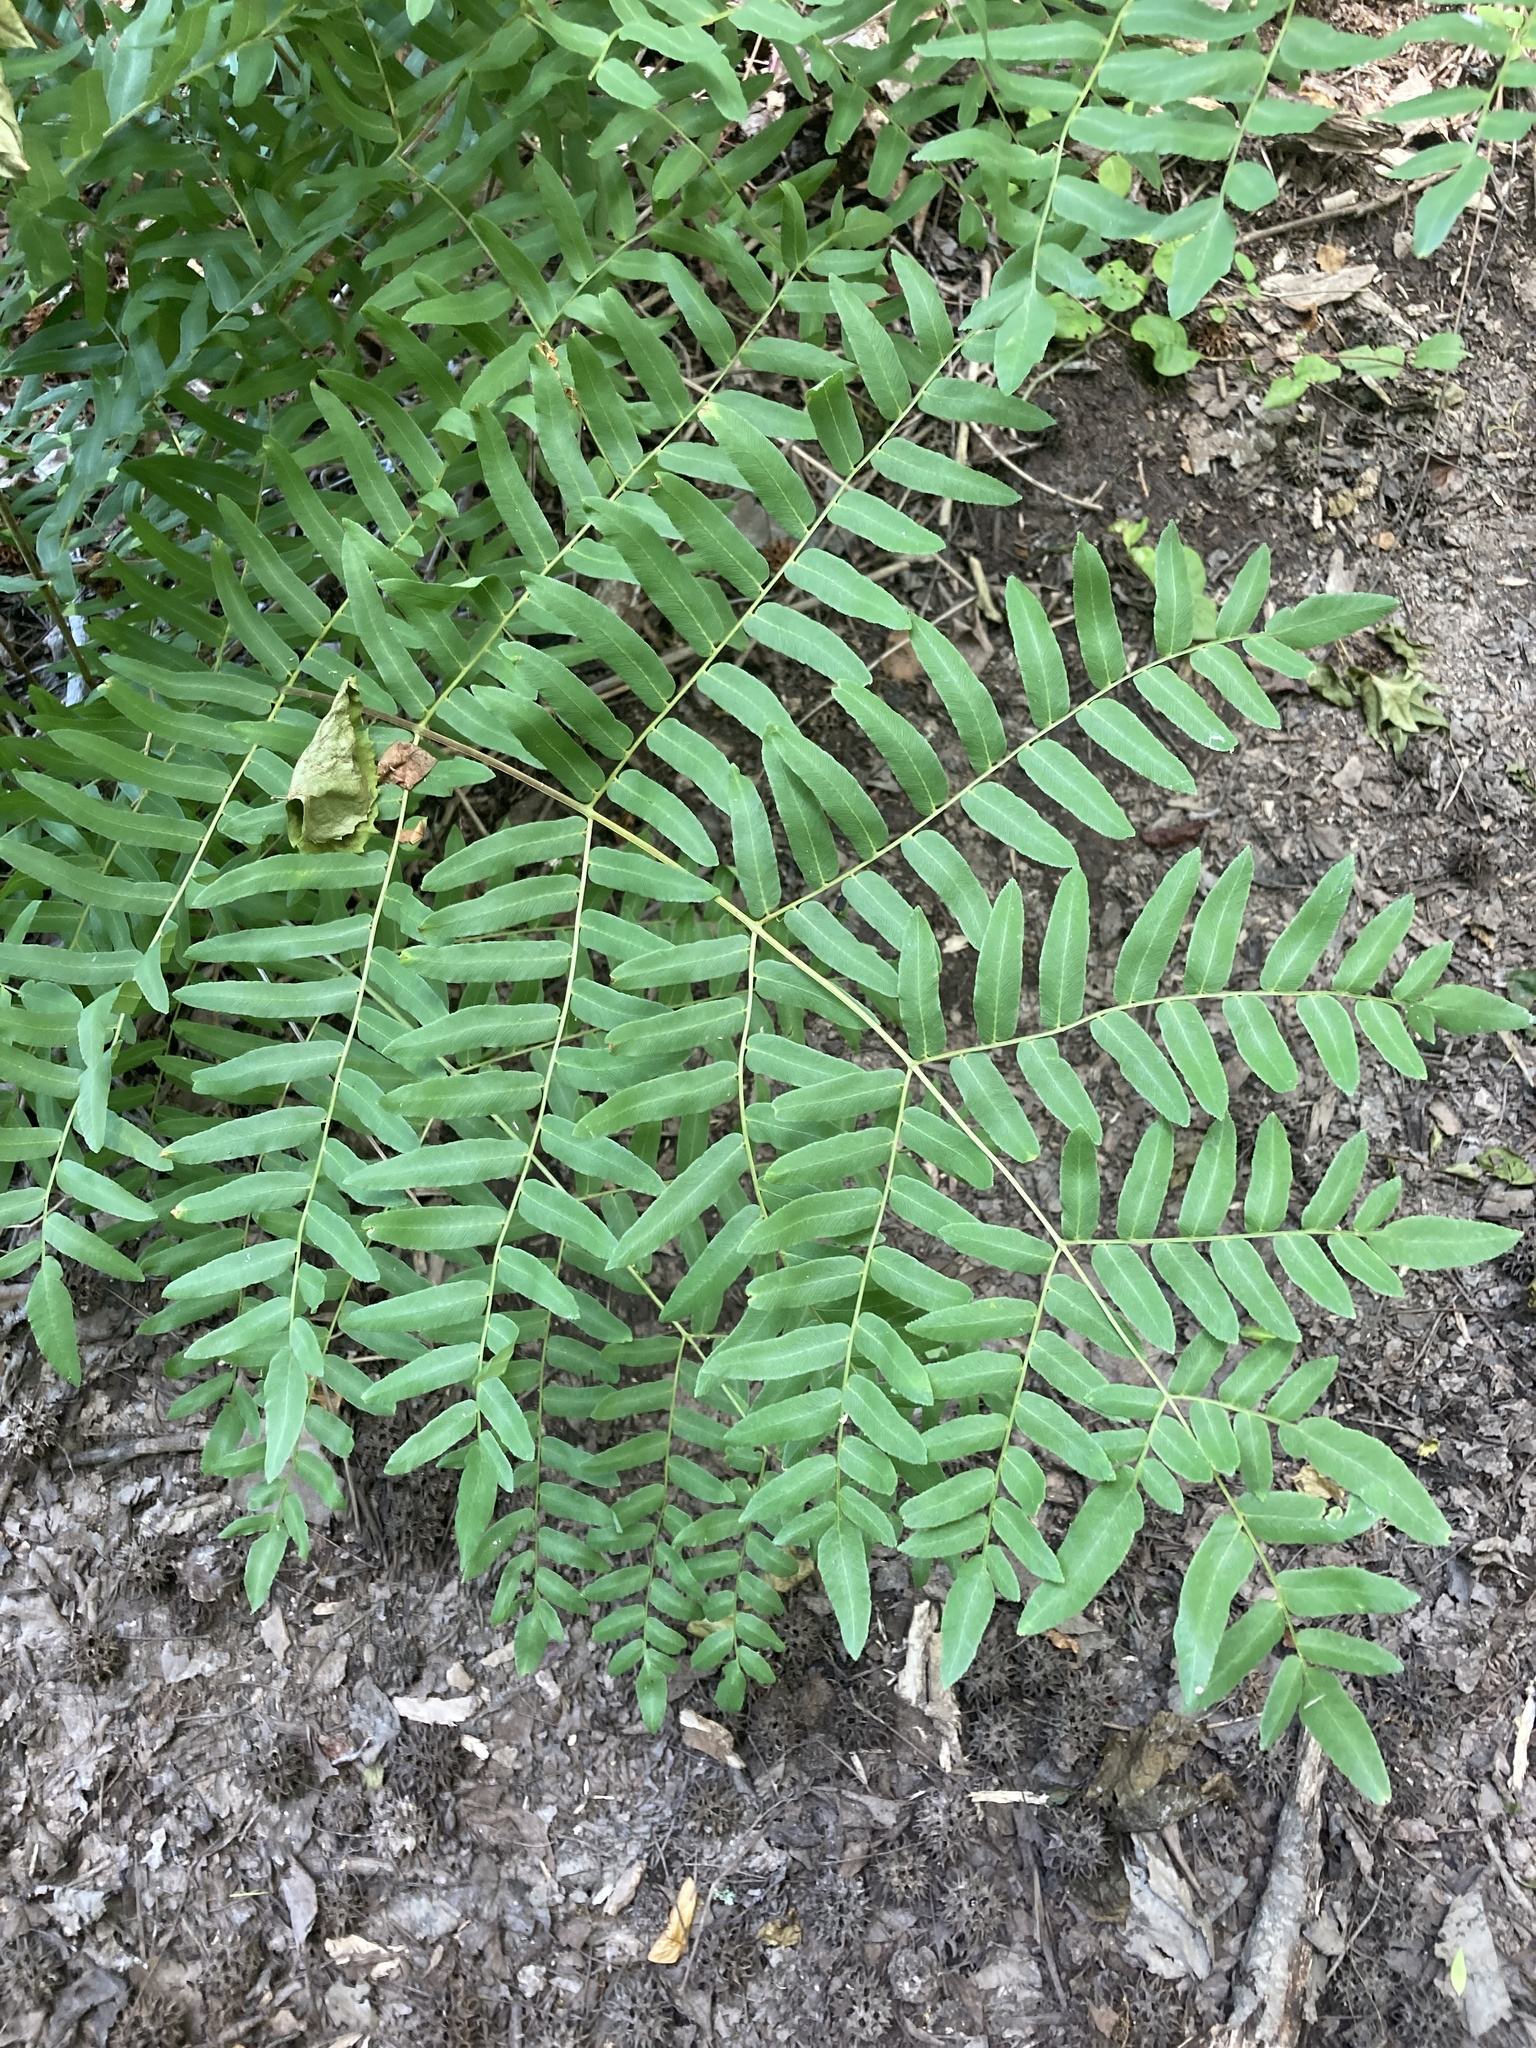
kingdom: Plantae
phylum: Tracheophyta
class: Polypodiopsida
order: Osmundales
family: Osmundaceae
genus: Osmunda
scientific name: Osmunda spectabilis
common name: American royal fern
